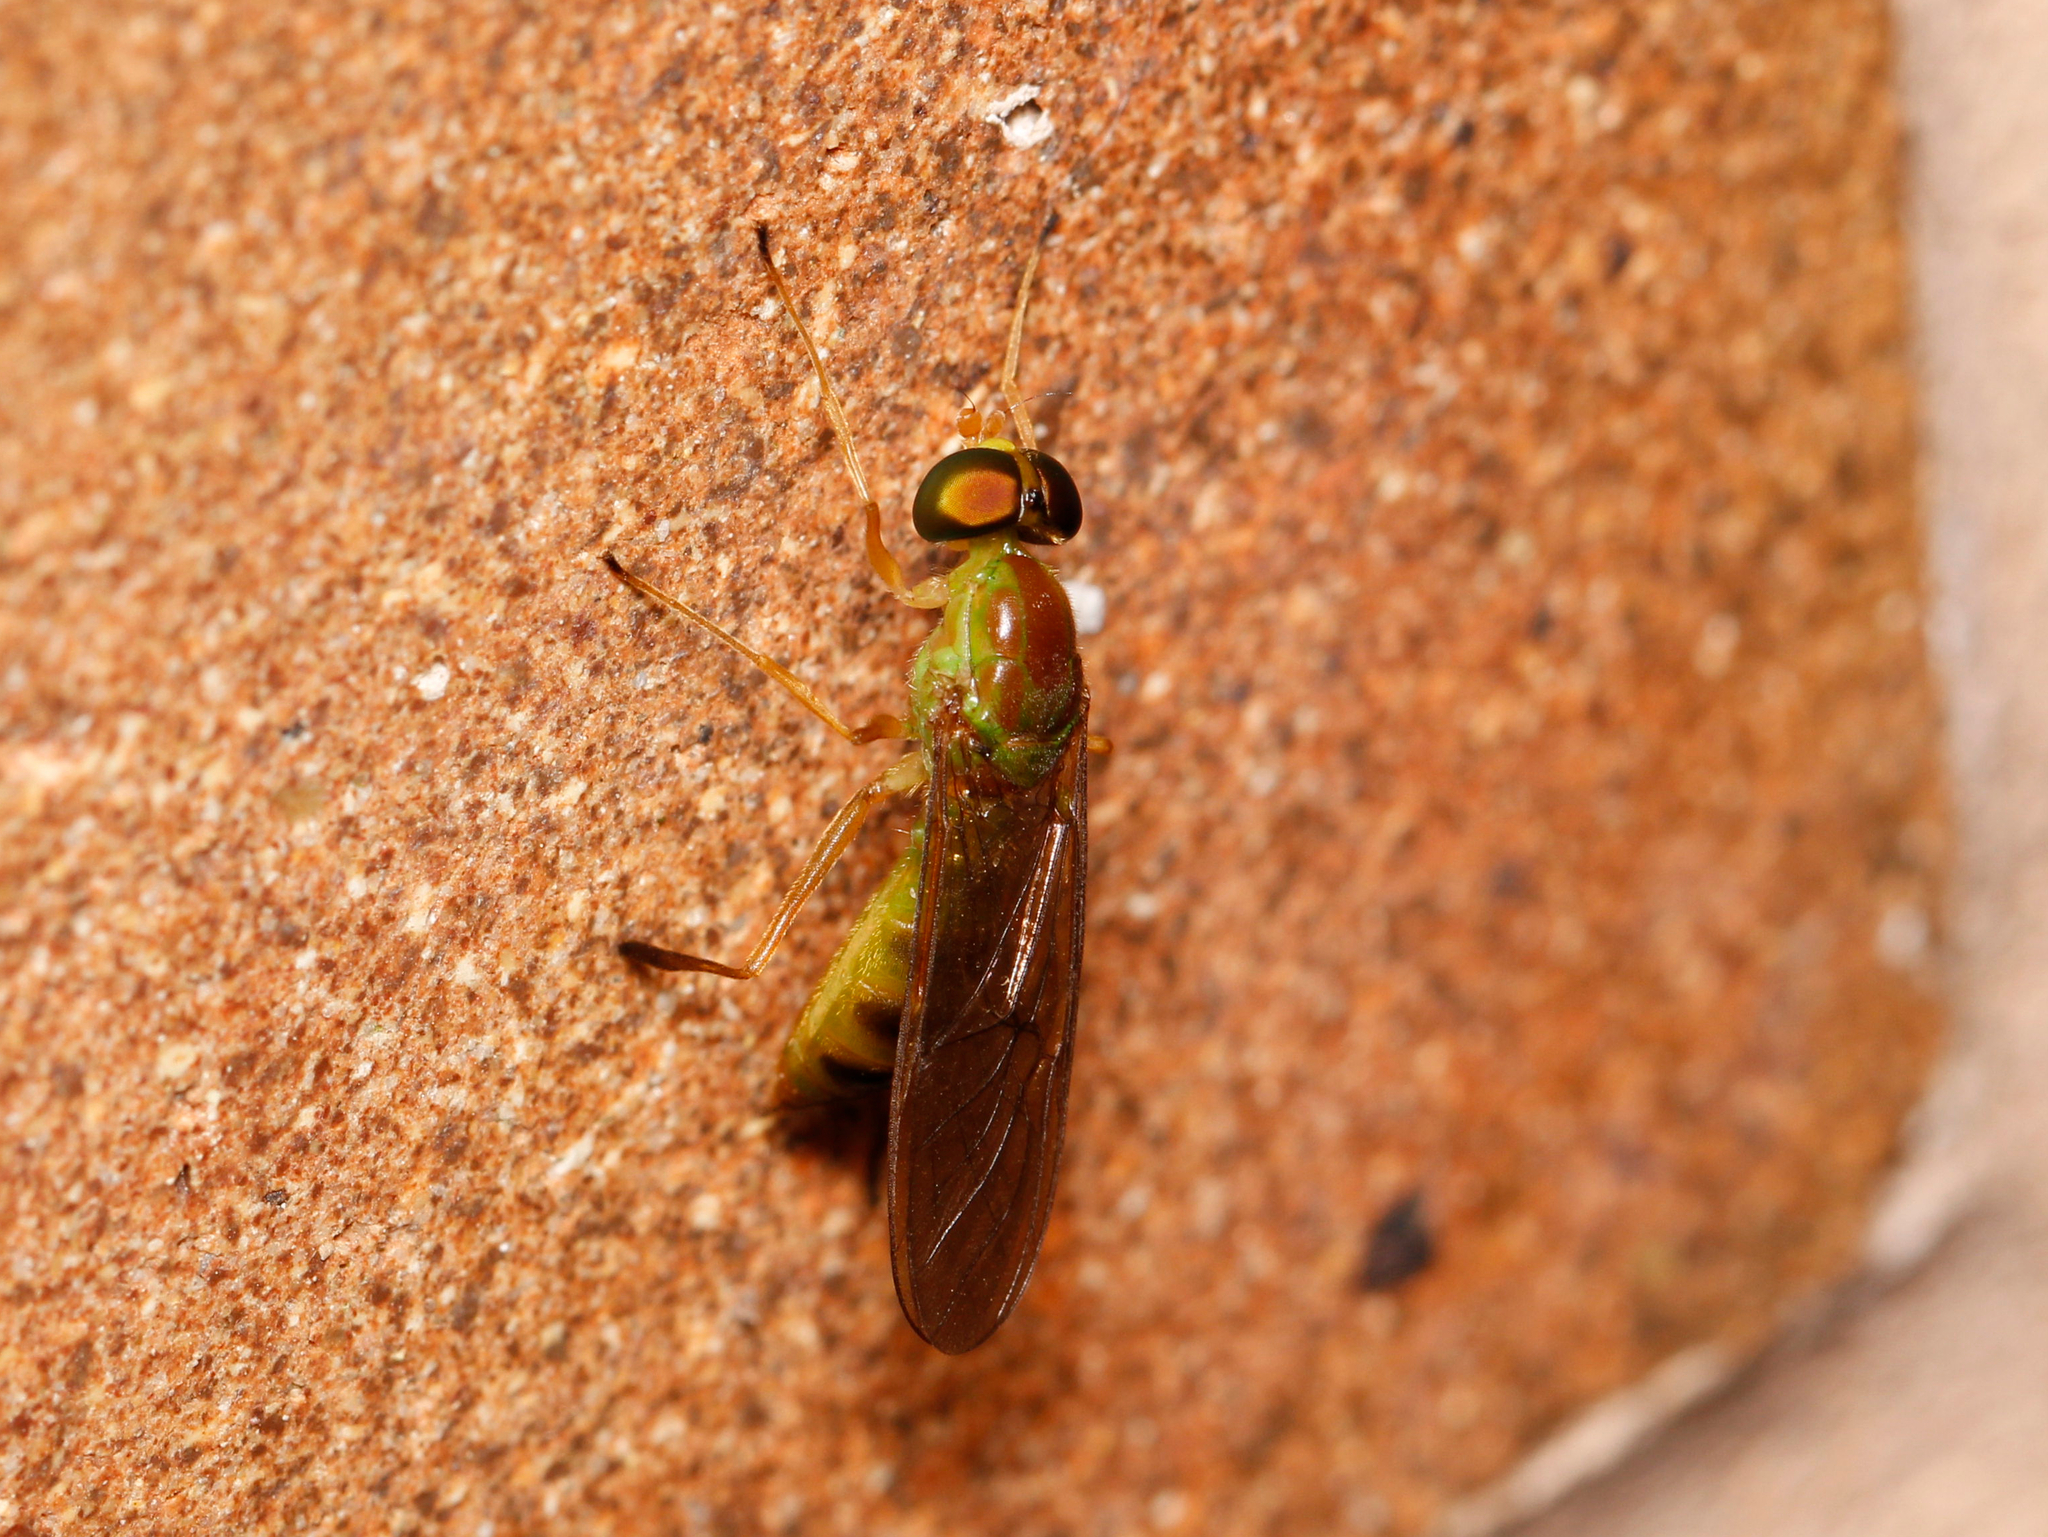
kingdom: Animalia
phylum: Arthropoda
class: Insecta
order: Diptera
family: Stratiomyidae
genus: Ptecticus
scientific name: Ptecticus trivittatus
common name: Compost fly
